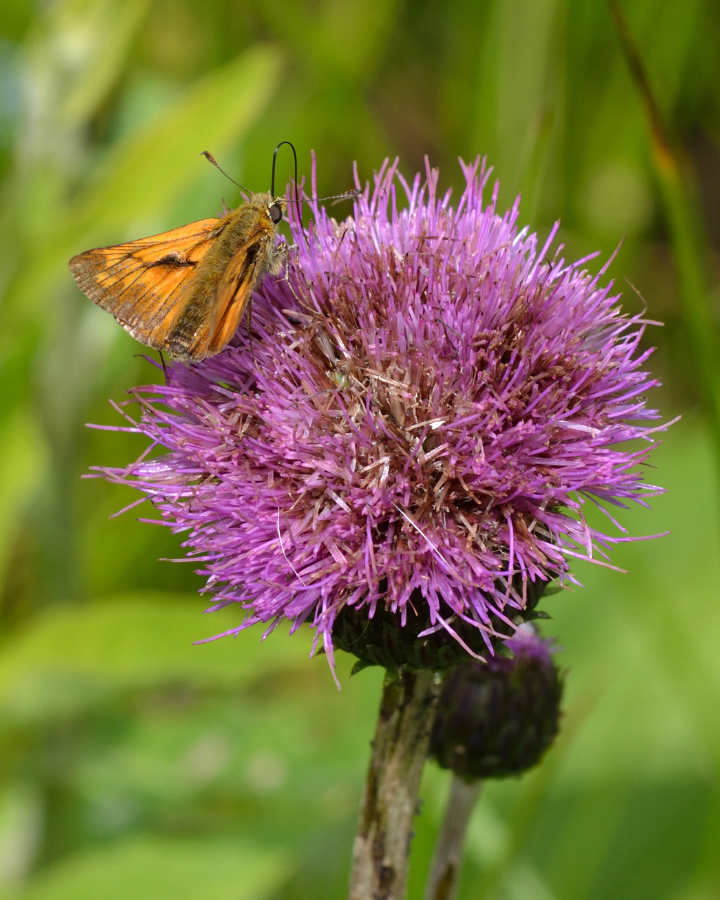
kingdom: Animalia
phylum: Arthropoda
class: Insecta
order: Lepidoptera
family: Hesperiidae
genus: Ochlodes
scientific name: Ochlodes venata
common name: Large skipper
